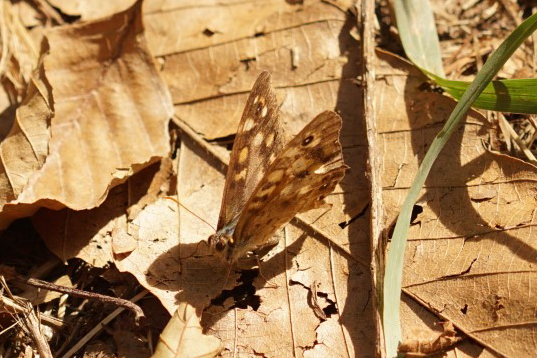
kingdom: Animalia
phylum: Arthropoda
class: Insecta
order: Lepidoptera
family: Nymphalidae
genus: Pararge
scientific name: Pararge aegeria
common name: Speckled wood
